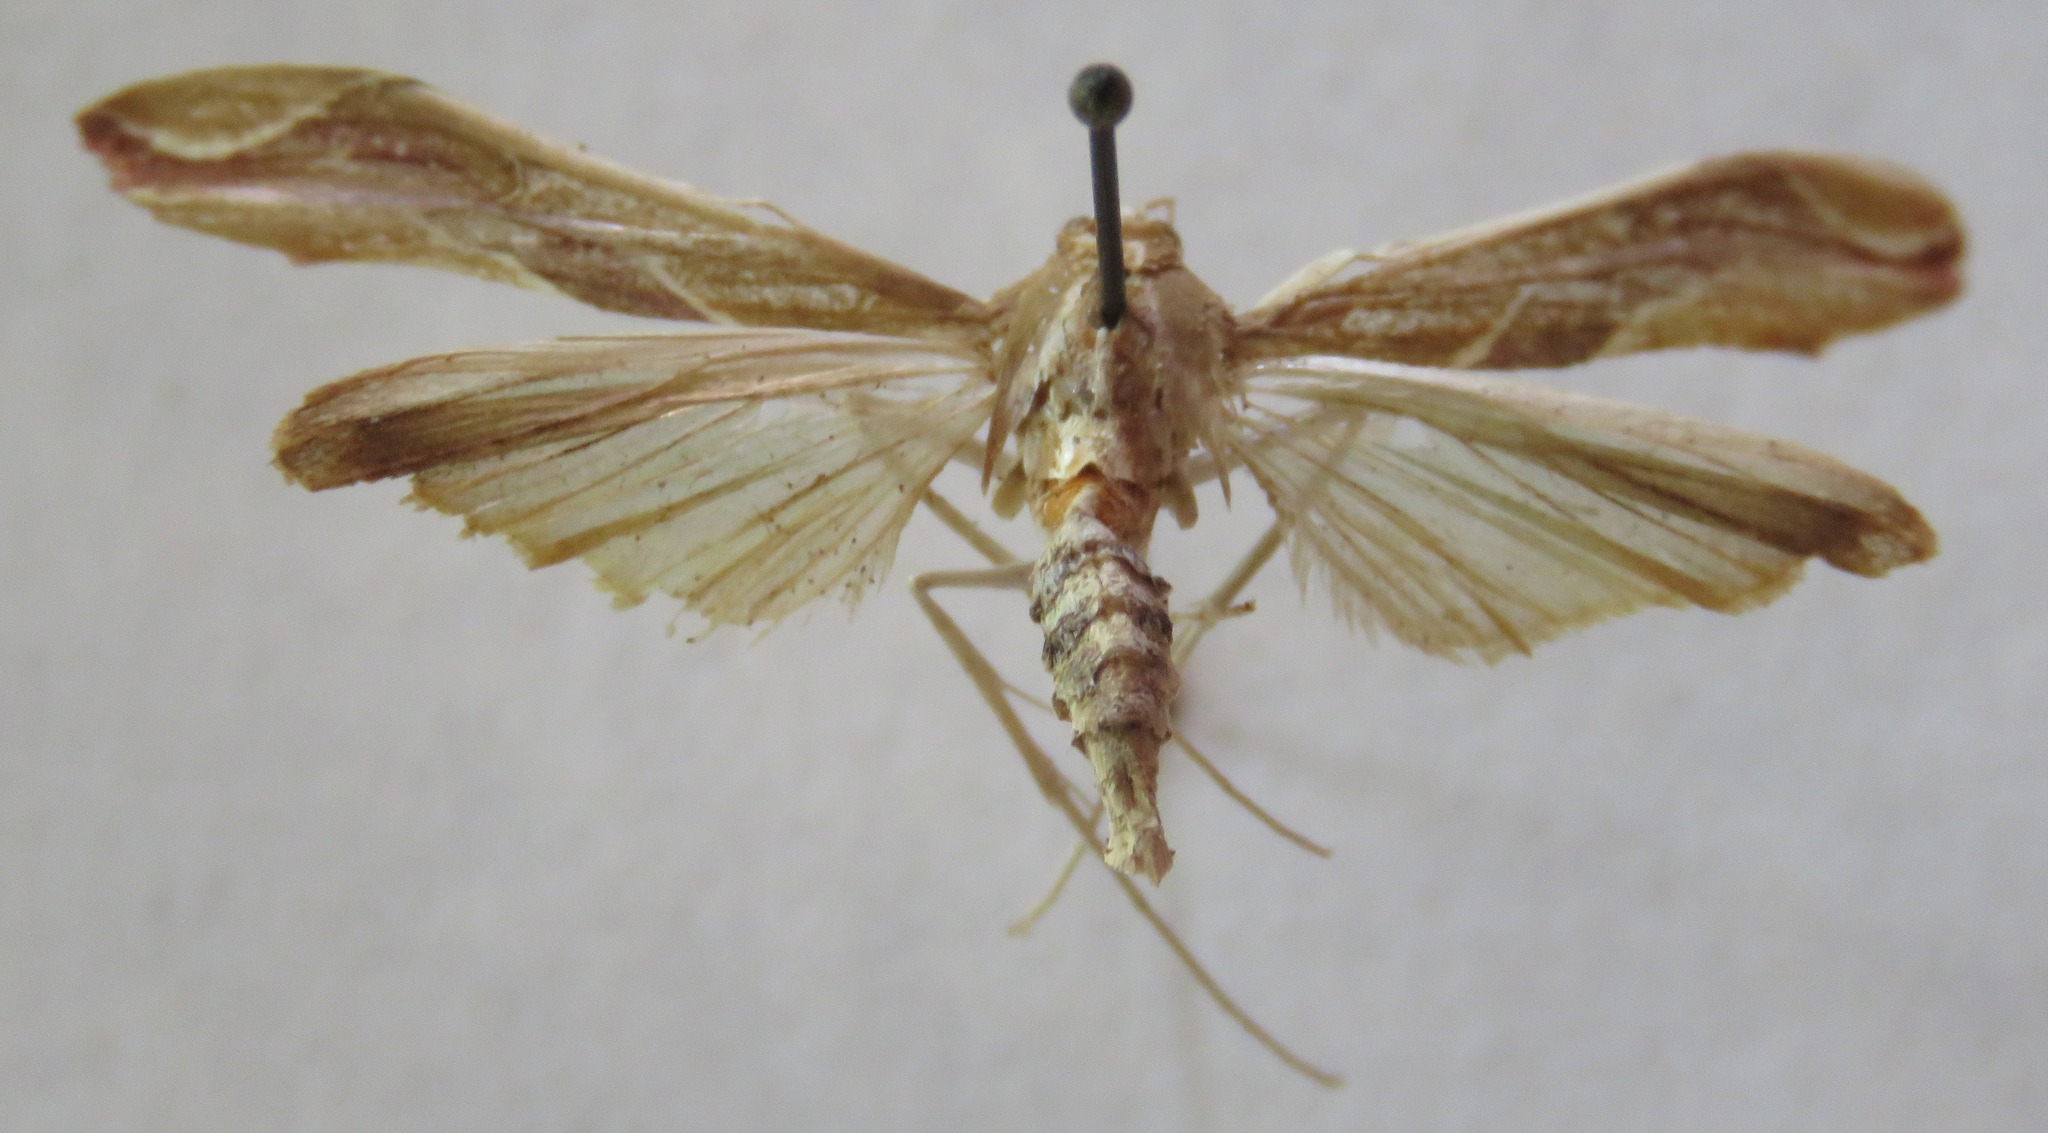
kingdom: Animalia
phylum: Arthropoda
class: Insecta
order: Lepidoptera
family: Crambidae
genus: Agathodes
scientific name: Agathodes designalis
